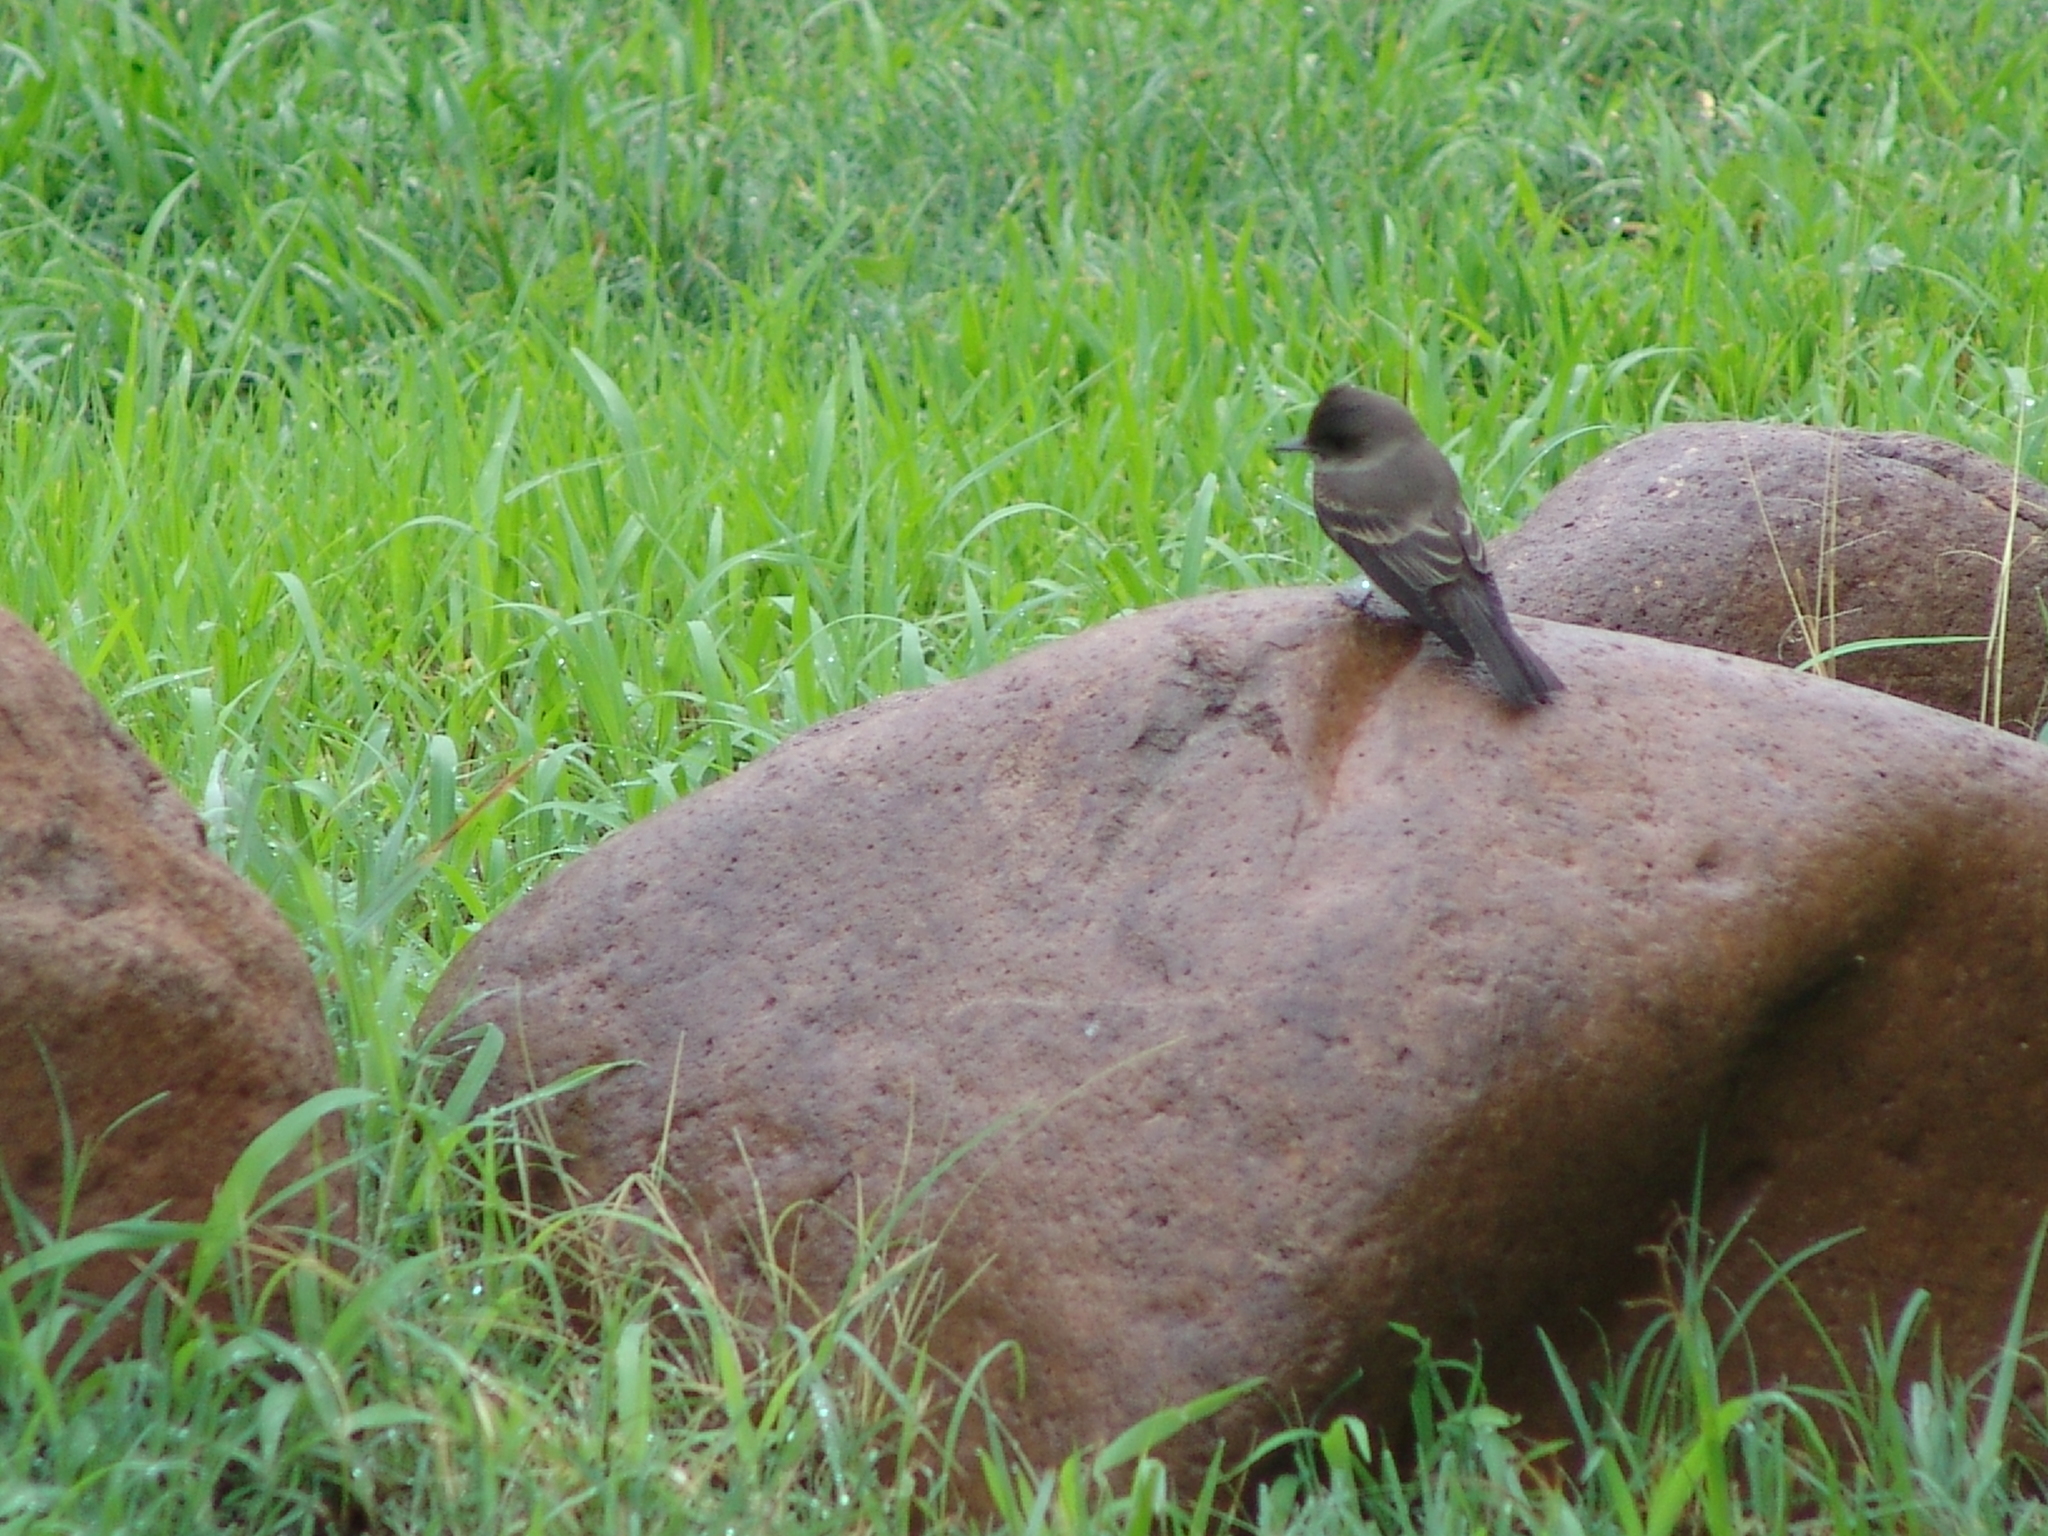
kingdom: Animalia
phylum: Chordata
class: Aves
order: Passeriformes
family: Tyrannidae
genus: Contopus
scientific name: Contopus sordidulus
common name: Western wood-pewee
